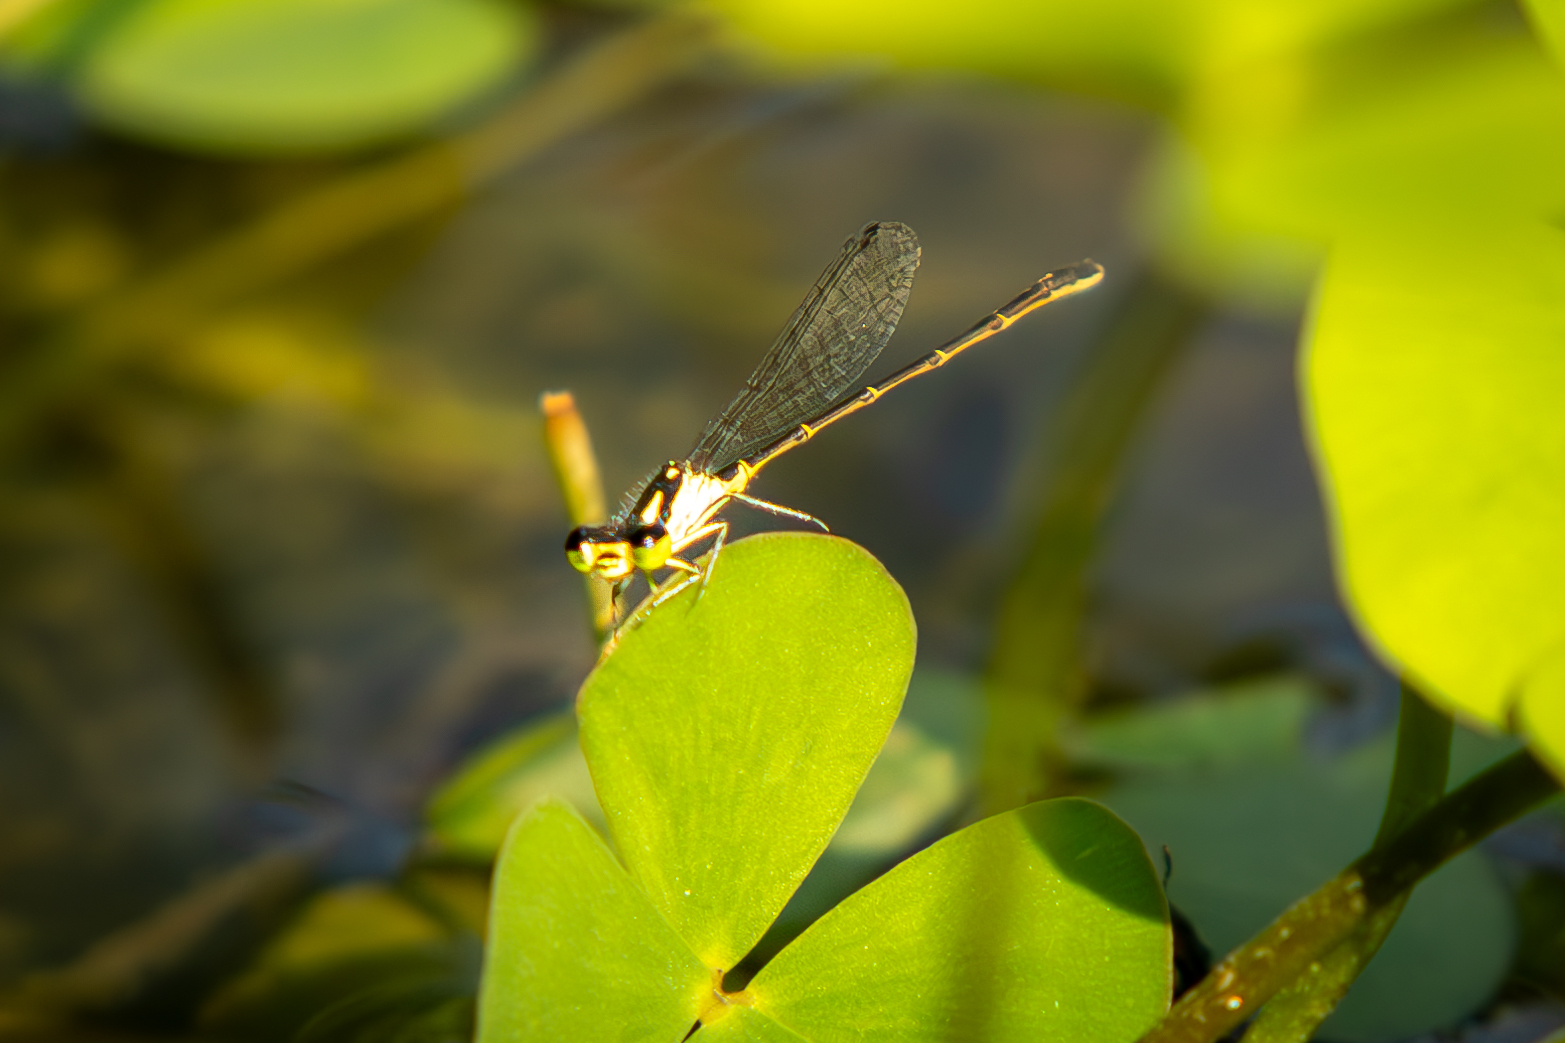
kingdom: Animalia
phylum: Arthropoda
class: Insecta
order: Odonata
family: Coenagrionidae
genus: Ischnura
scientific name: Ischnura posita
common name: Fragile forktail
